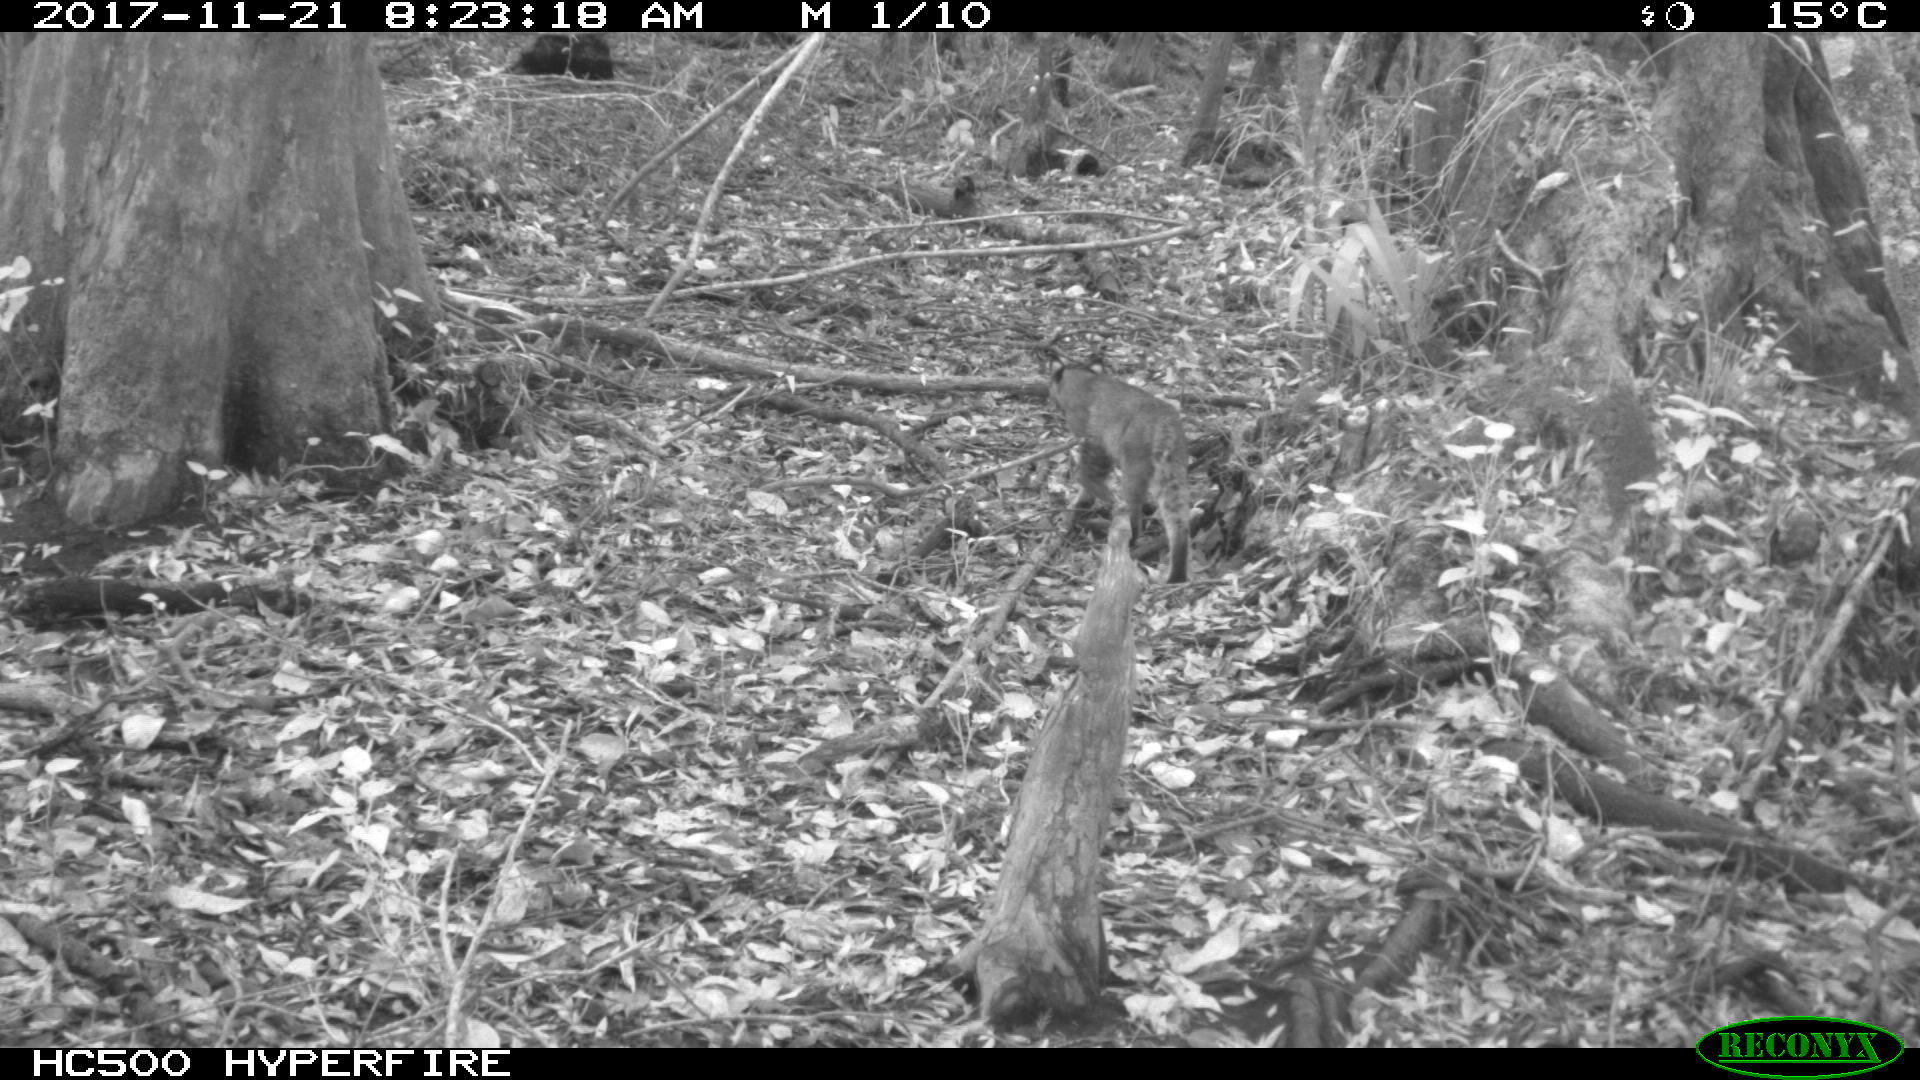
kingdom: Animalia
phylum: Chordata
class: Mammalia
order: Carnivora
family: Felidae
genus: Lynx
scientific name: Lynx rufus
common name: Bobcat
